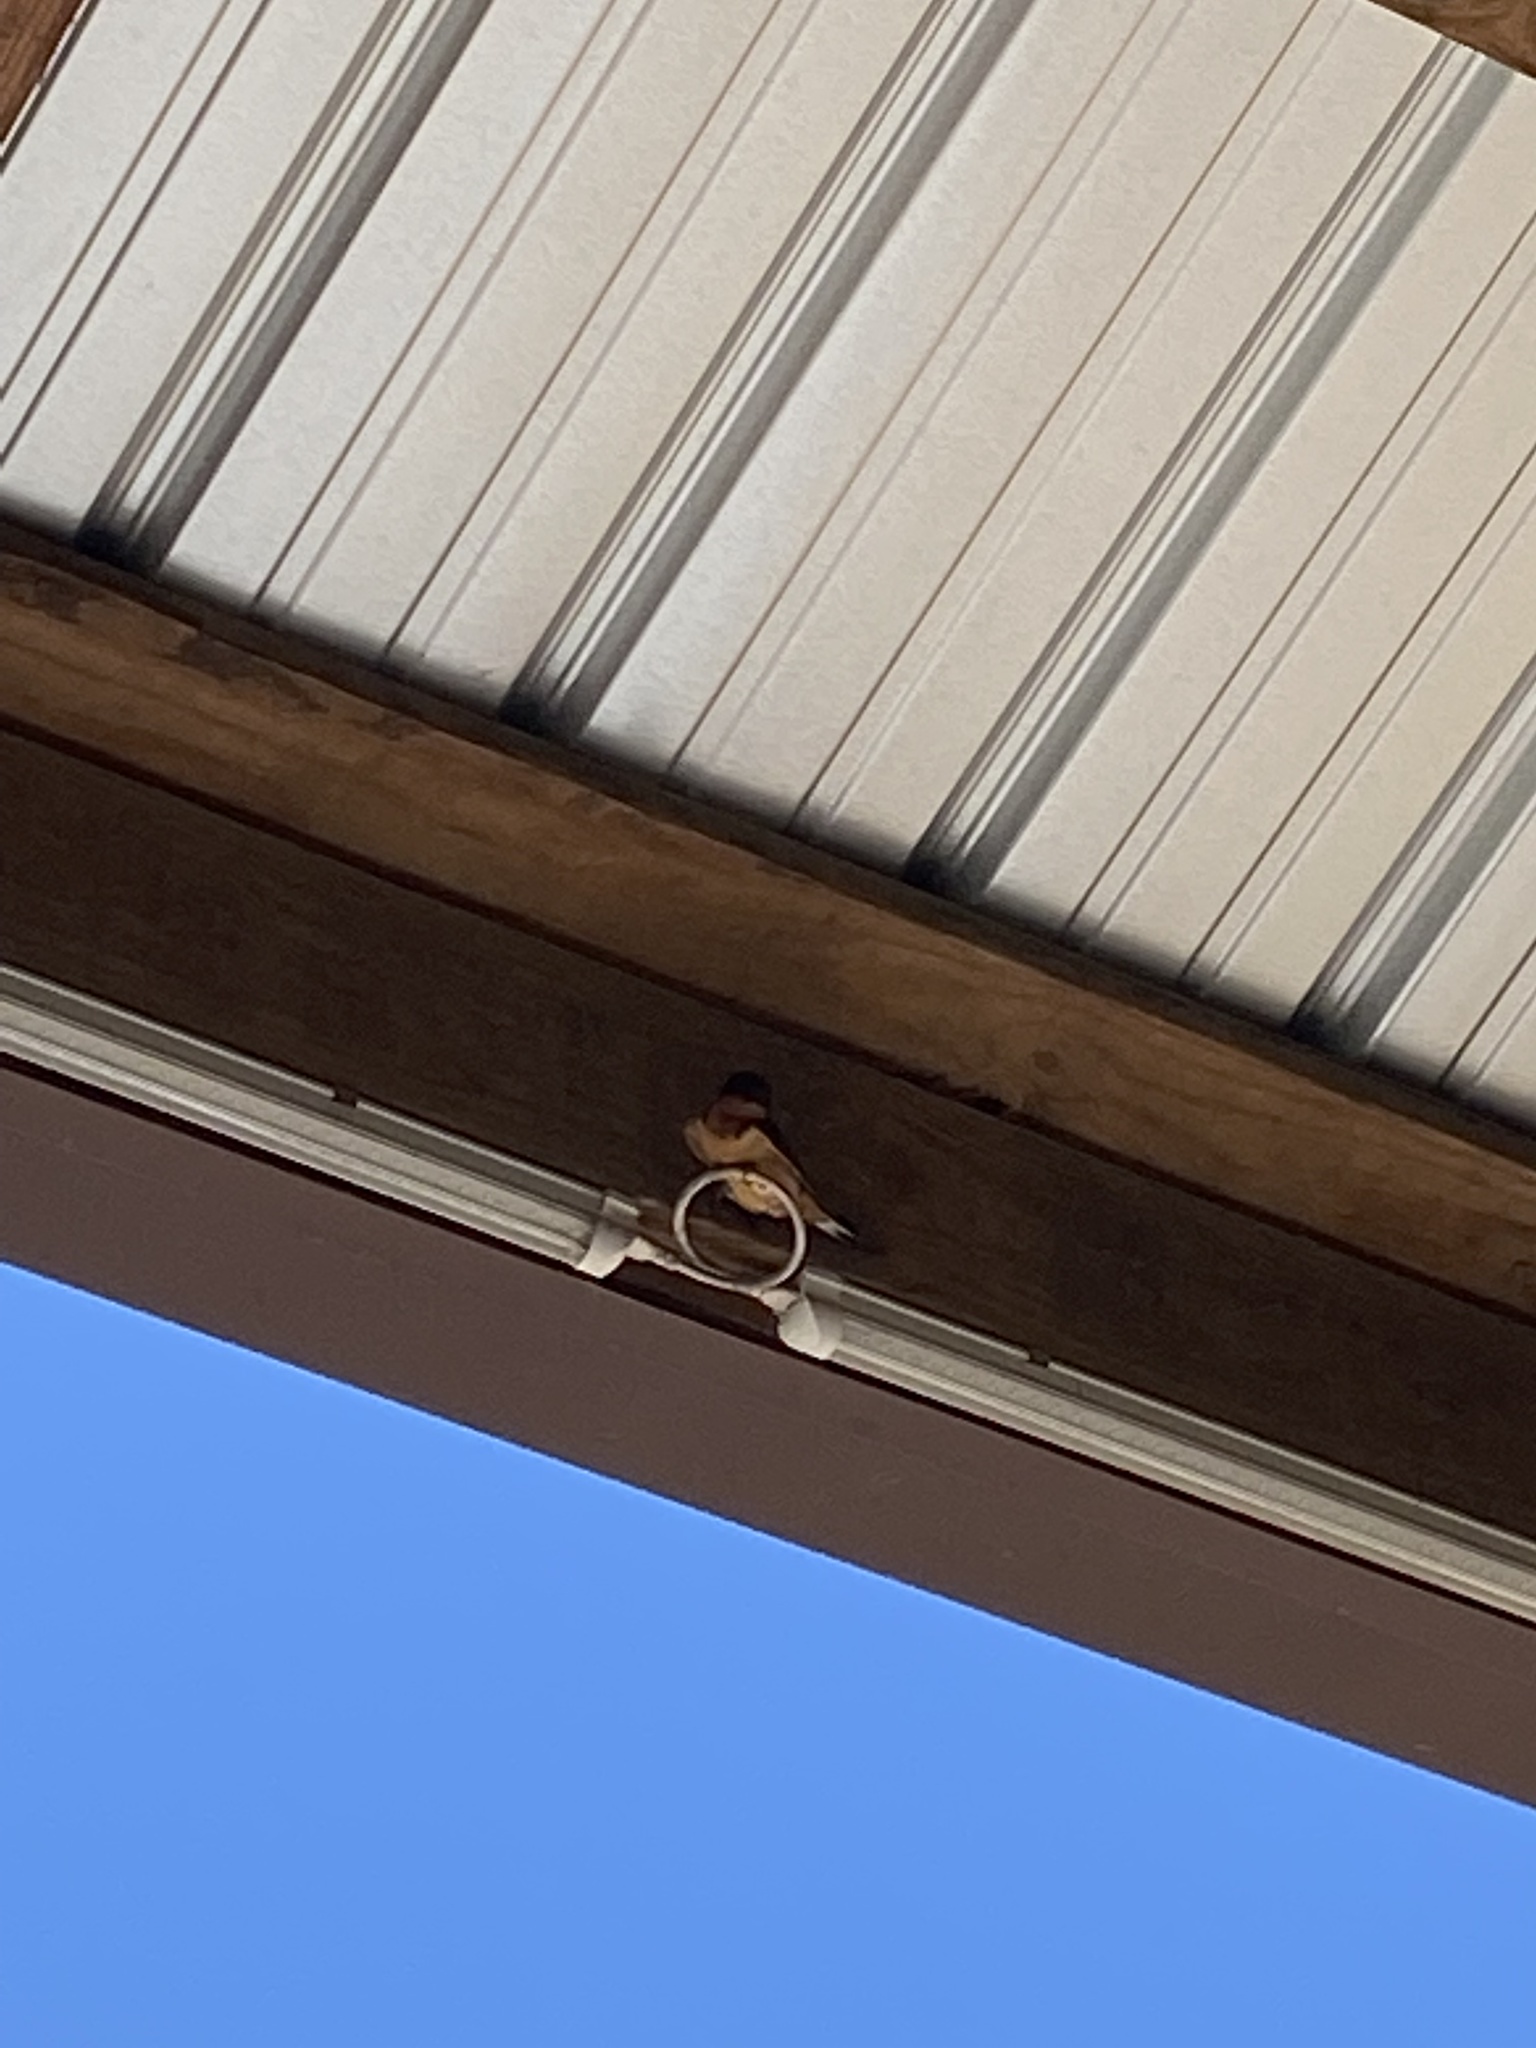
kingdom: Animalia
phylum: Chordata
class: Aves
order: Passeriformes
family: Hirundinidae
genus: Hirundo
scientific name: Hirundo rustica
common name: Barn swallow
